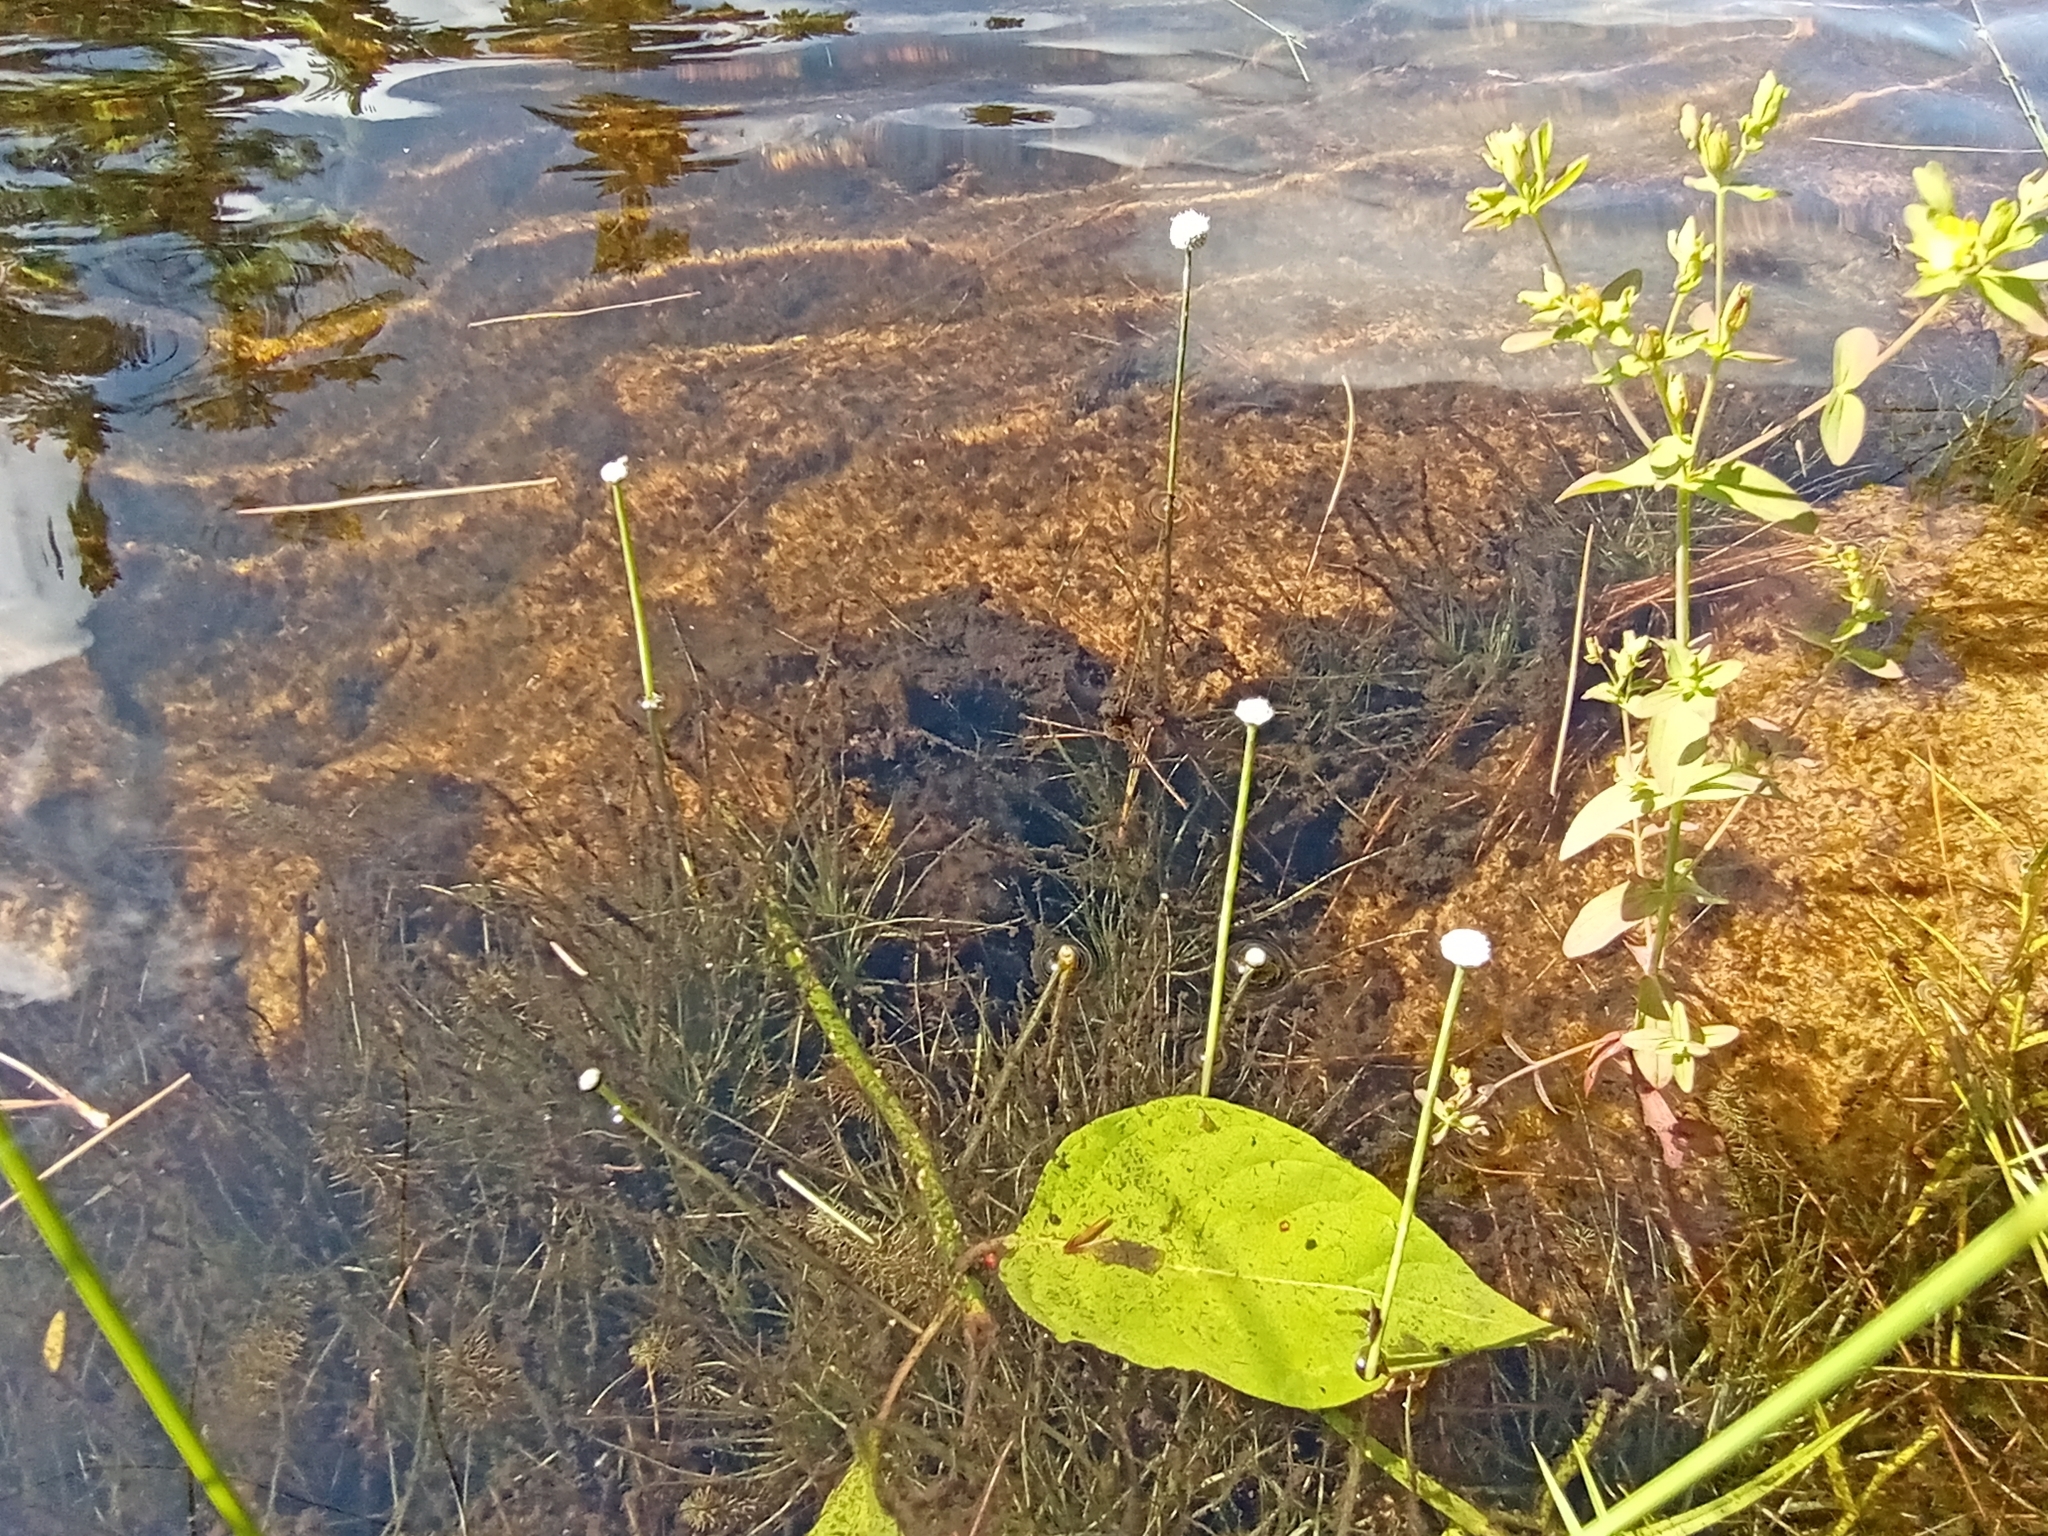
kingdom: Plantae
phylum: Tracheophyta
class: Liliopsida
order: Poales
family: Eriocaulaceae
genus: Eriocaulon
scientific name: Eriocaulon aquaticum
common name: Pipewort
